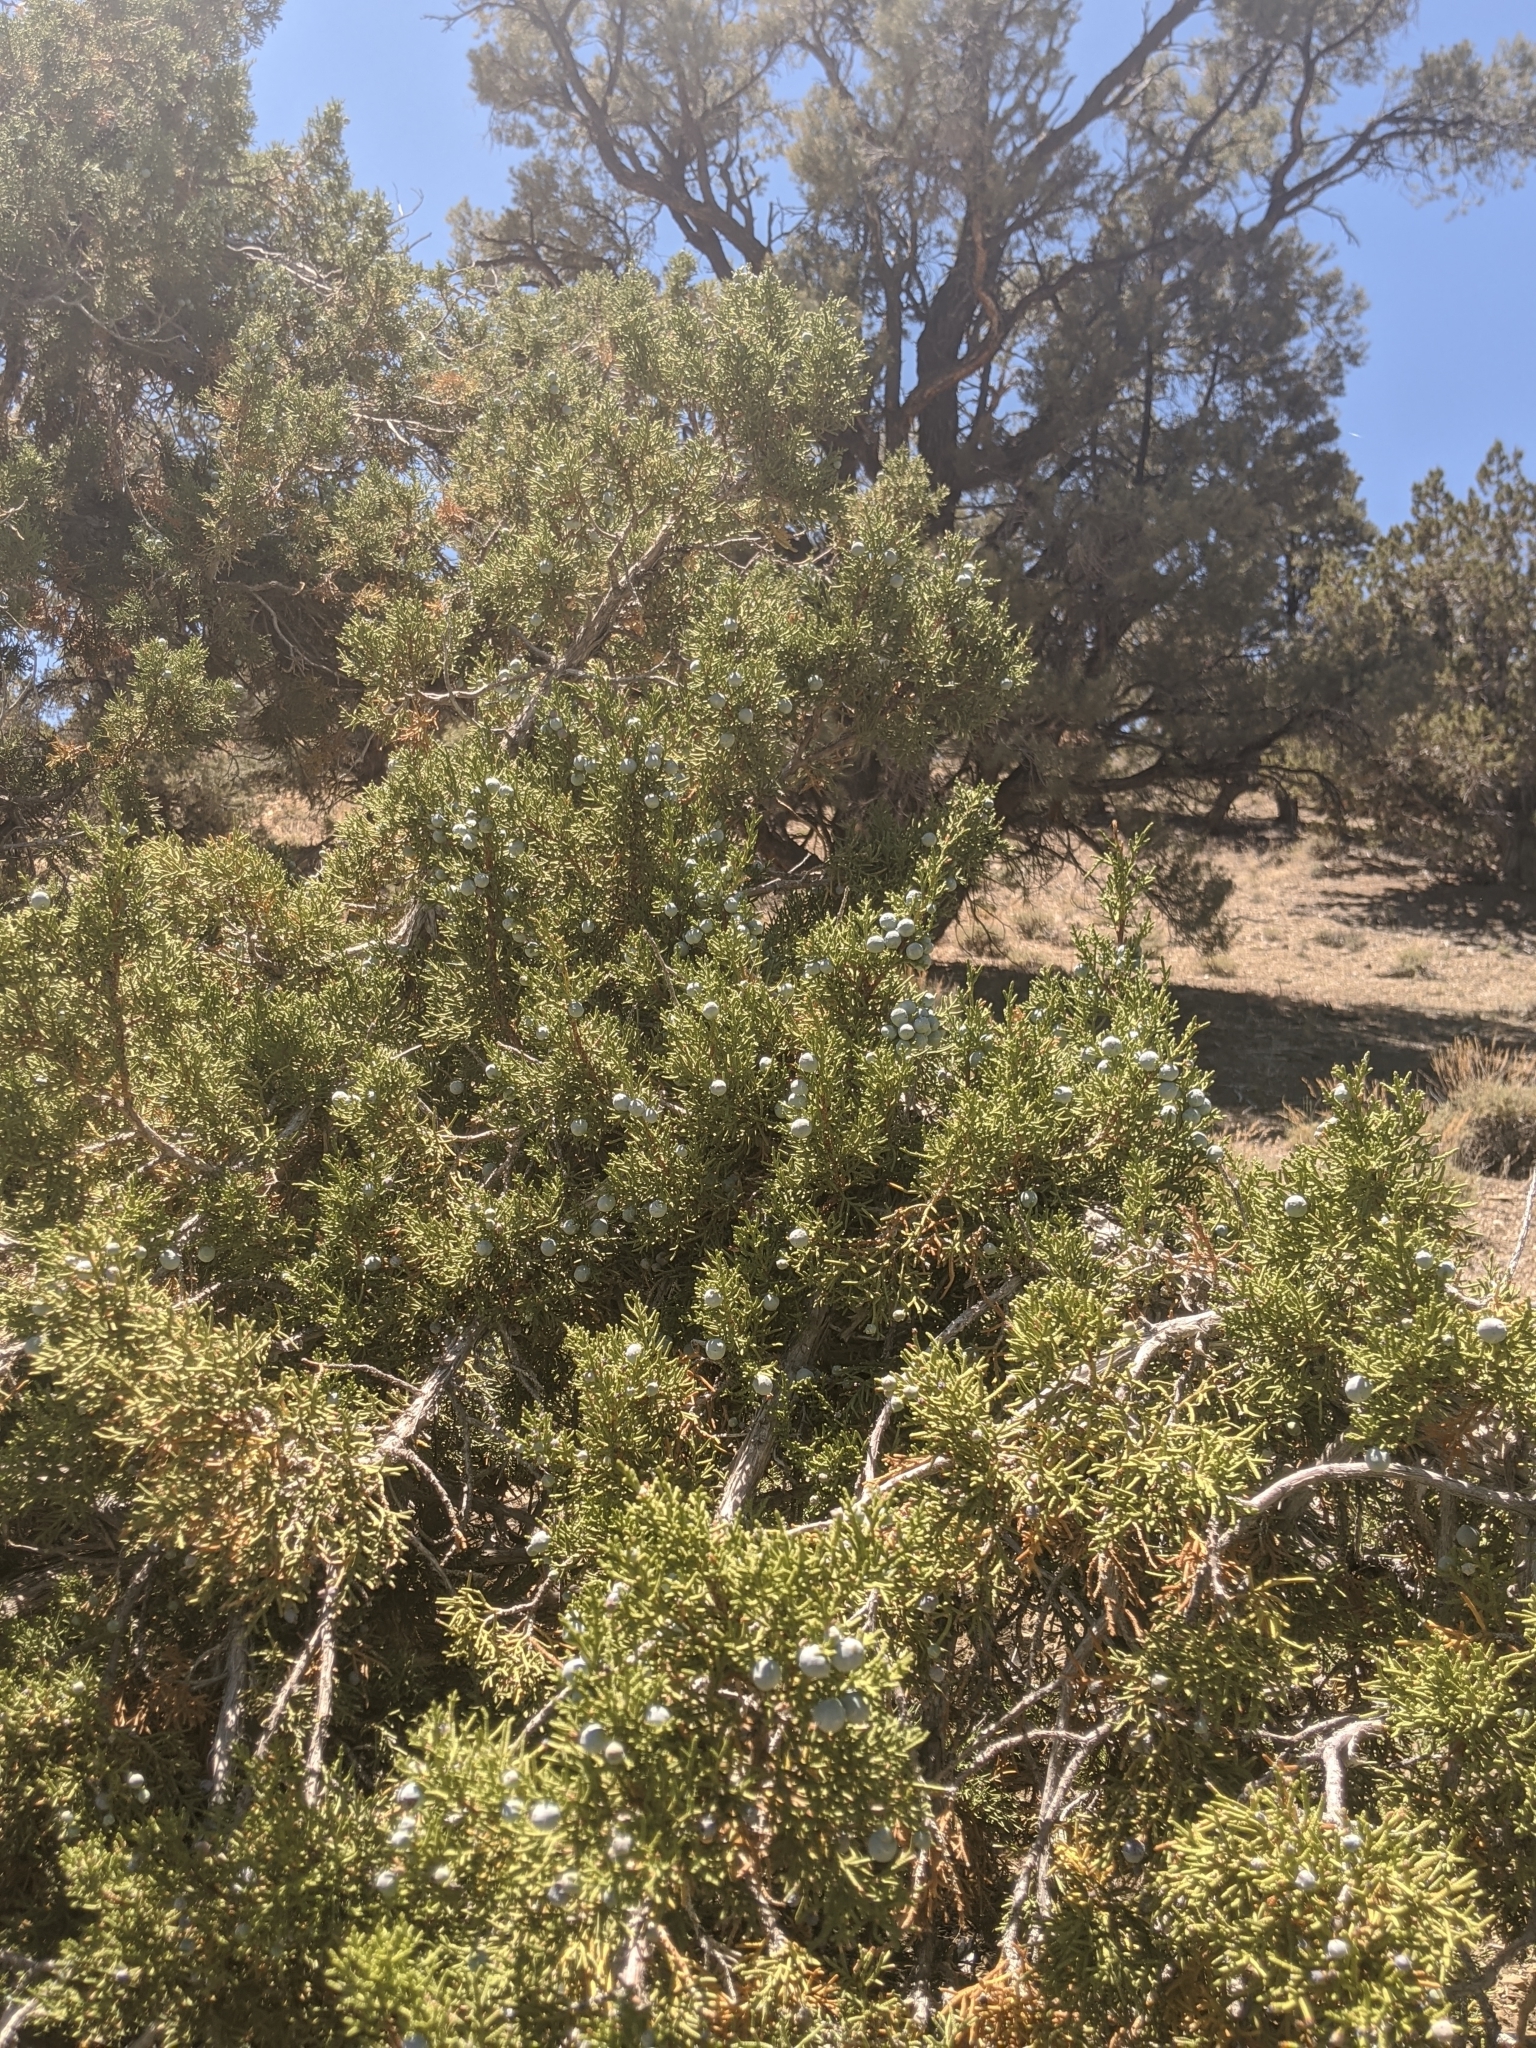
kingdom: Plantae
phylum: Tracheophyta
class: Pinopsida
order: Pinales
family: Cupressaceae
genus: Juniperus
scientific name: Juniperus osteosperma
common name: Utah juniper
